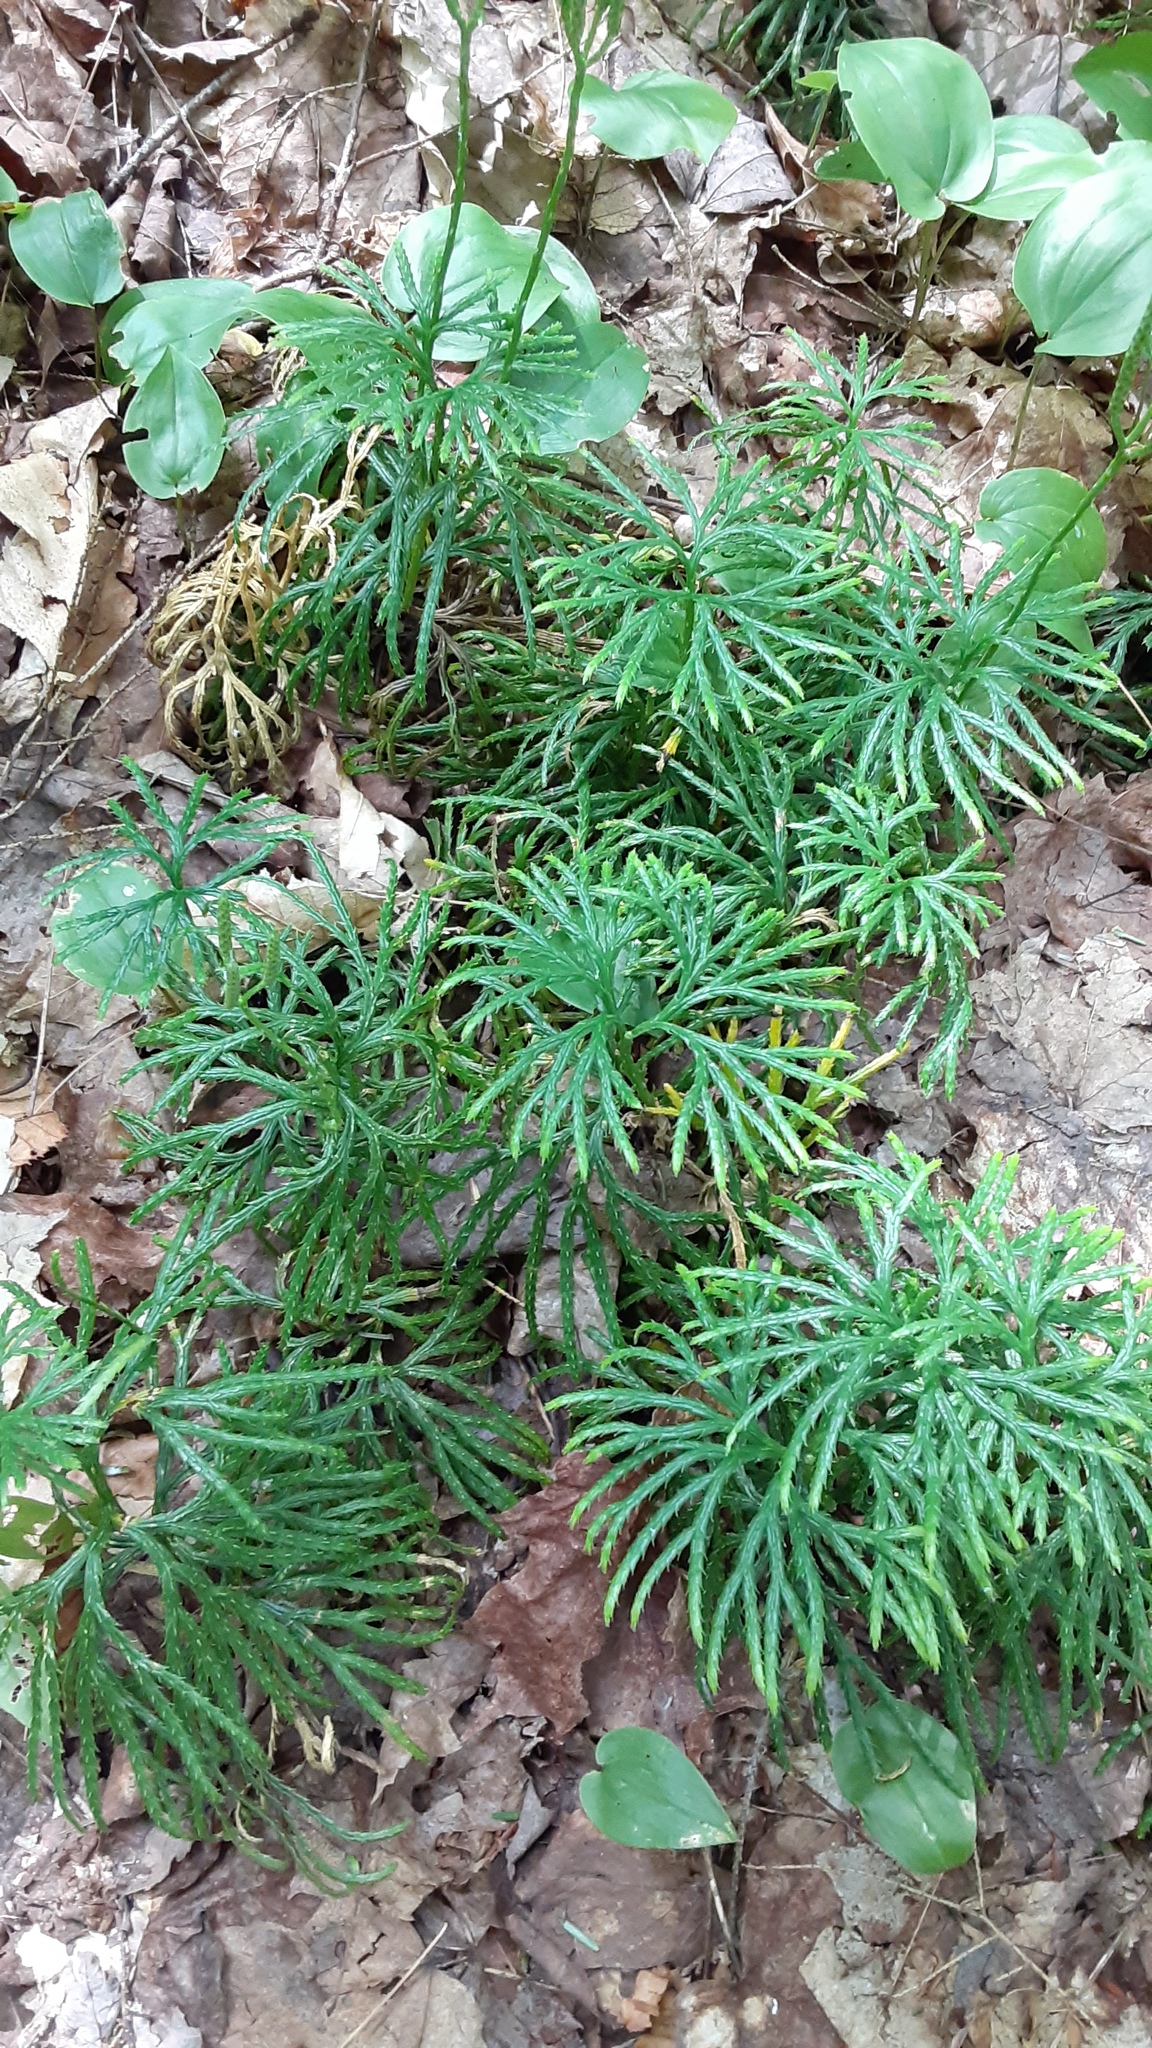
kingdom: Plantae
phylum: Tracheophyta
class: Lycopodiopsida
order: Lycopodiales
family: Lycopodiaceae
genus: Diphasiastrum
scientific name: Diphasiastrum digitatum
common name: Southern running-pine
